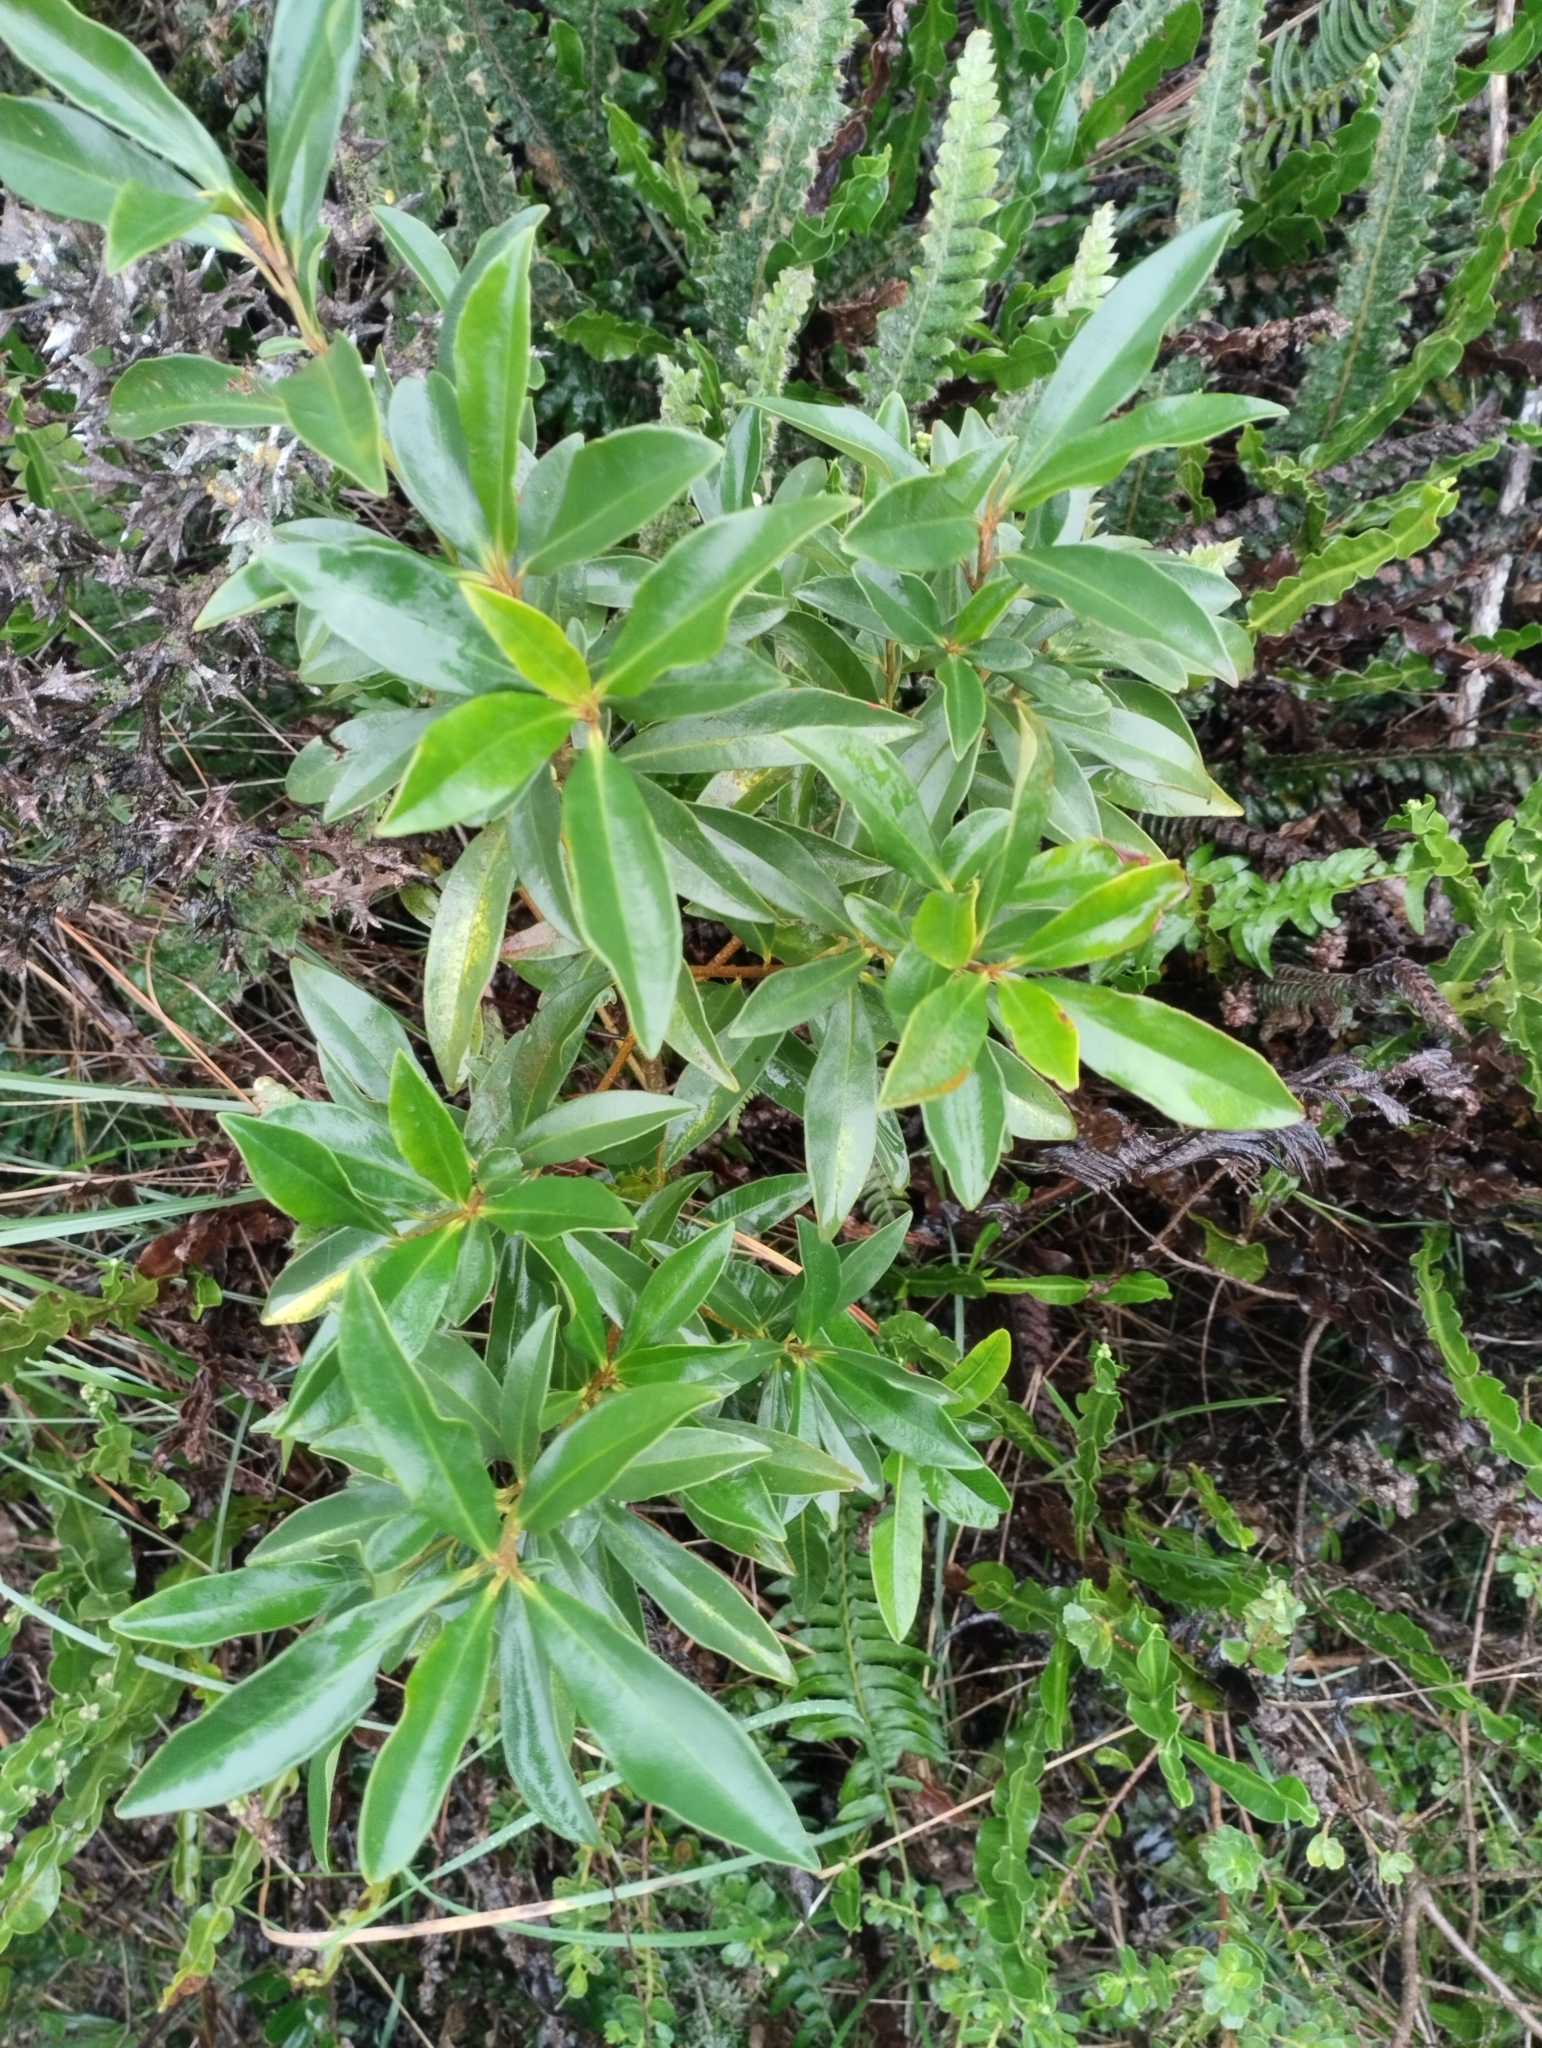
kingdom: Plantae
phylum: Tracheophyta
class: Magnoliopsida
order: Ericales
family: Primulaceae
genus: Myrsine
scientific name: Myrsine coriacea
